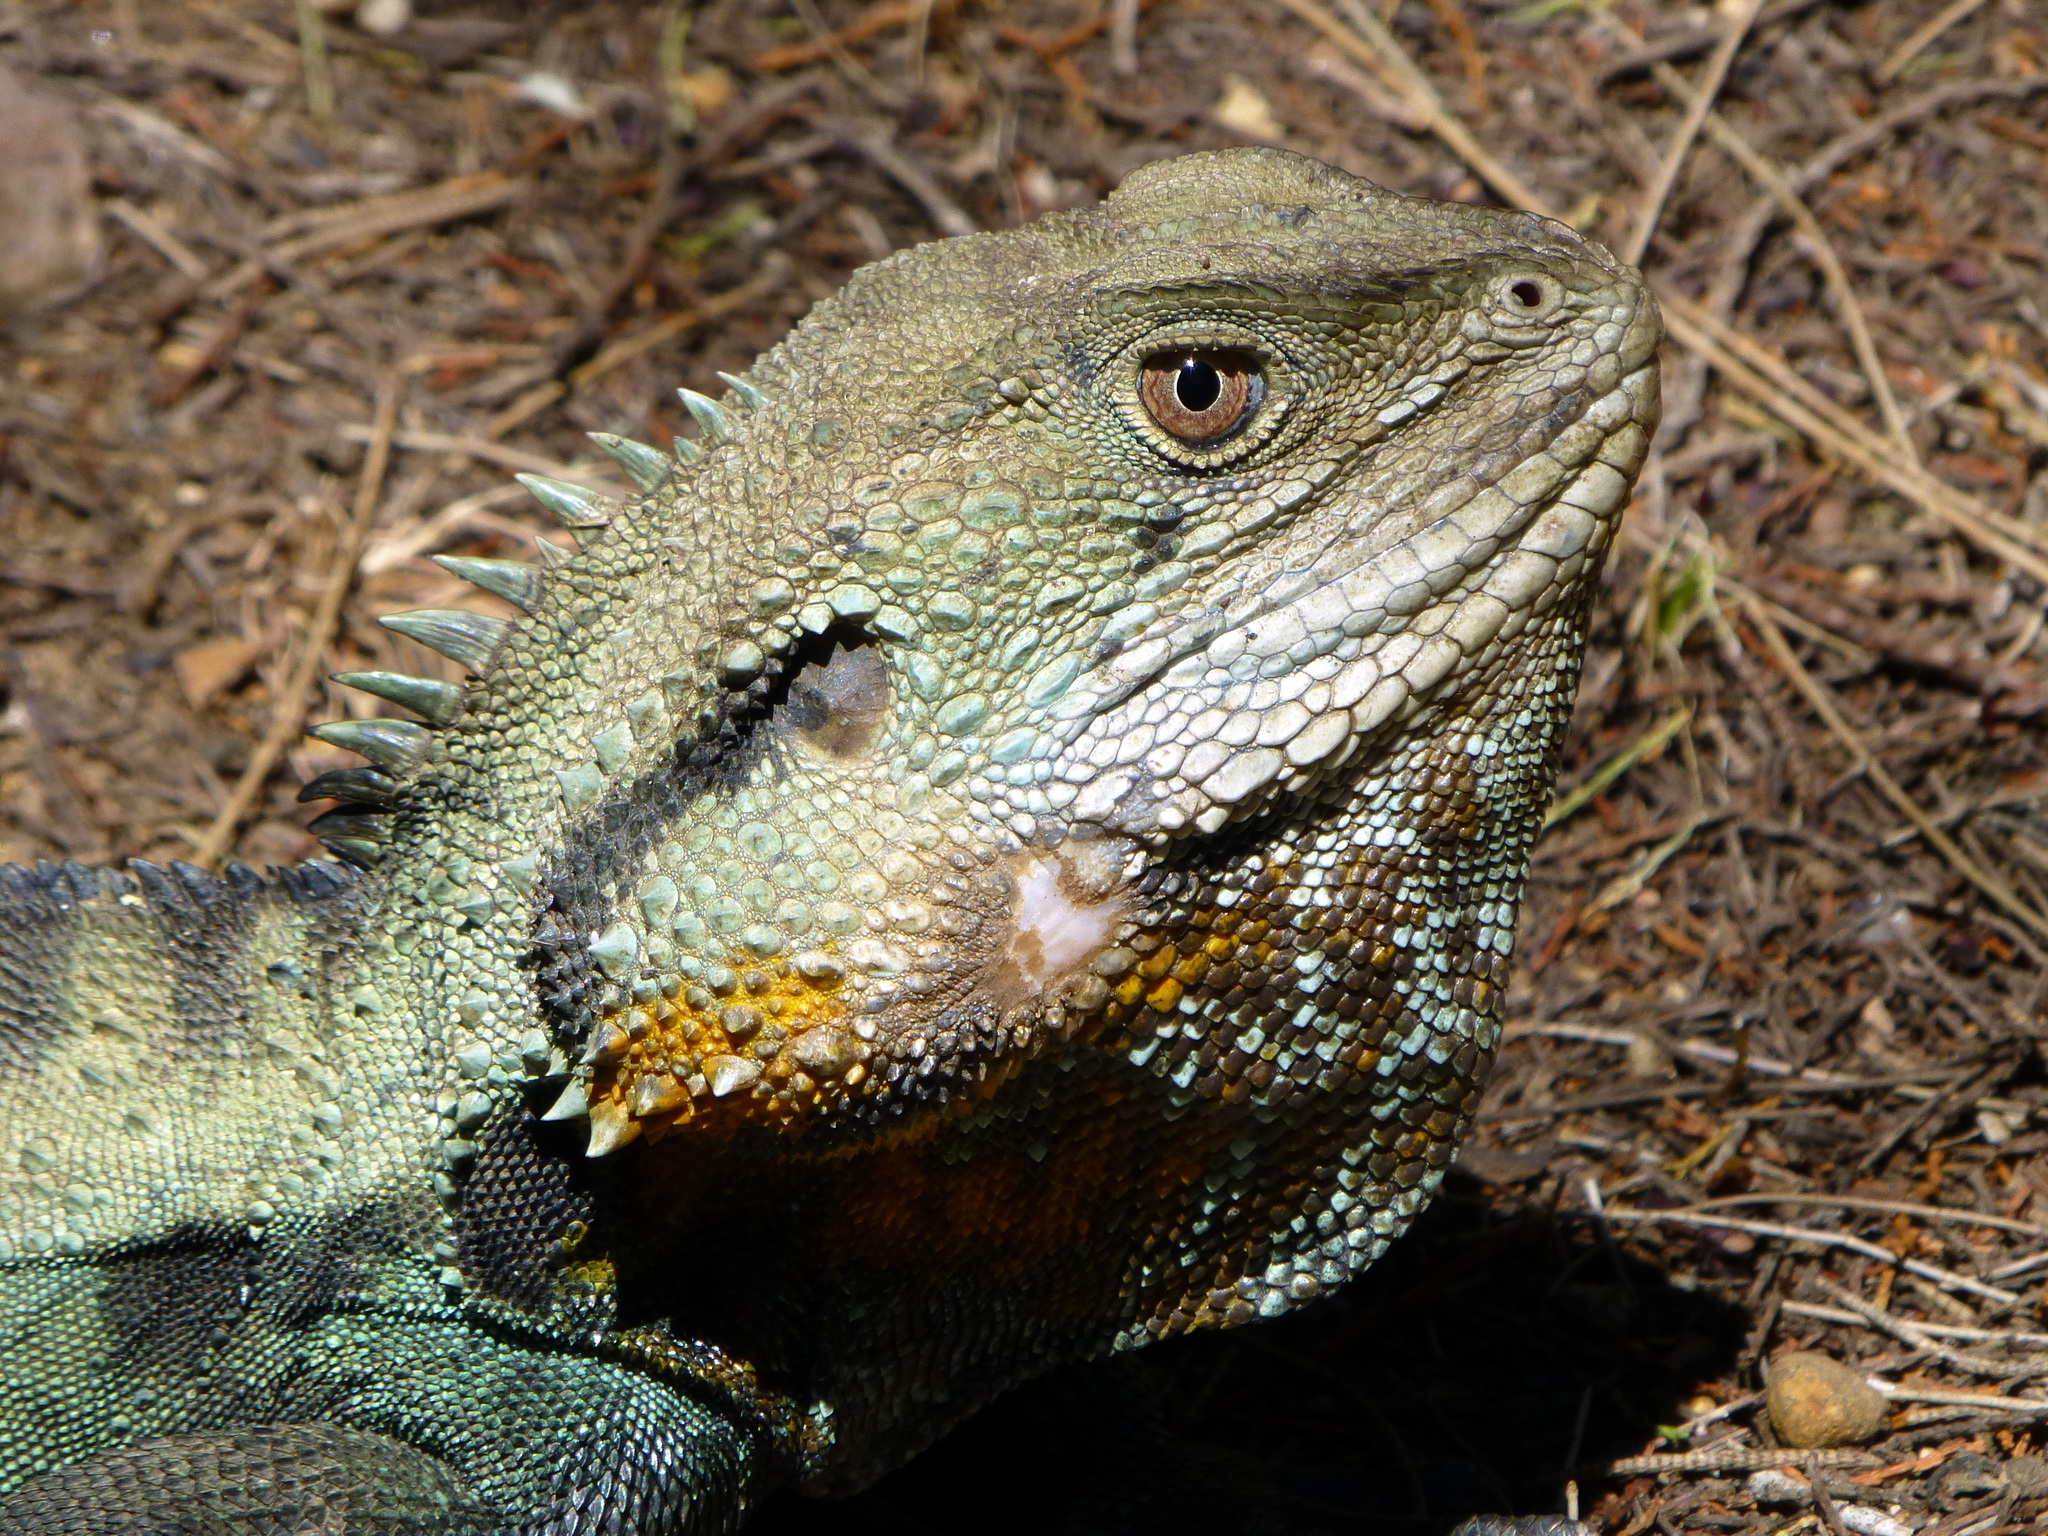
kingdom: Animalia
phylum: Chordata
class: Squamata
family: Agamidae
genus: Intellagama
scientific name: Intellagama lesueurii
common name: Eastern water dragon
